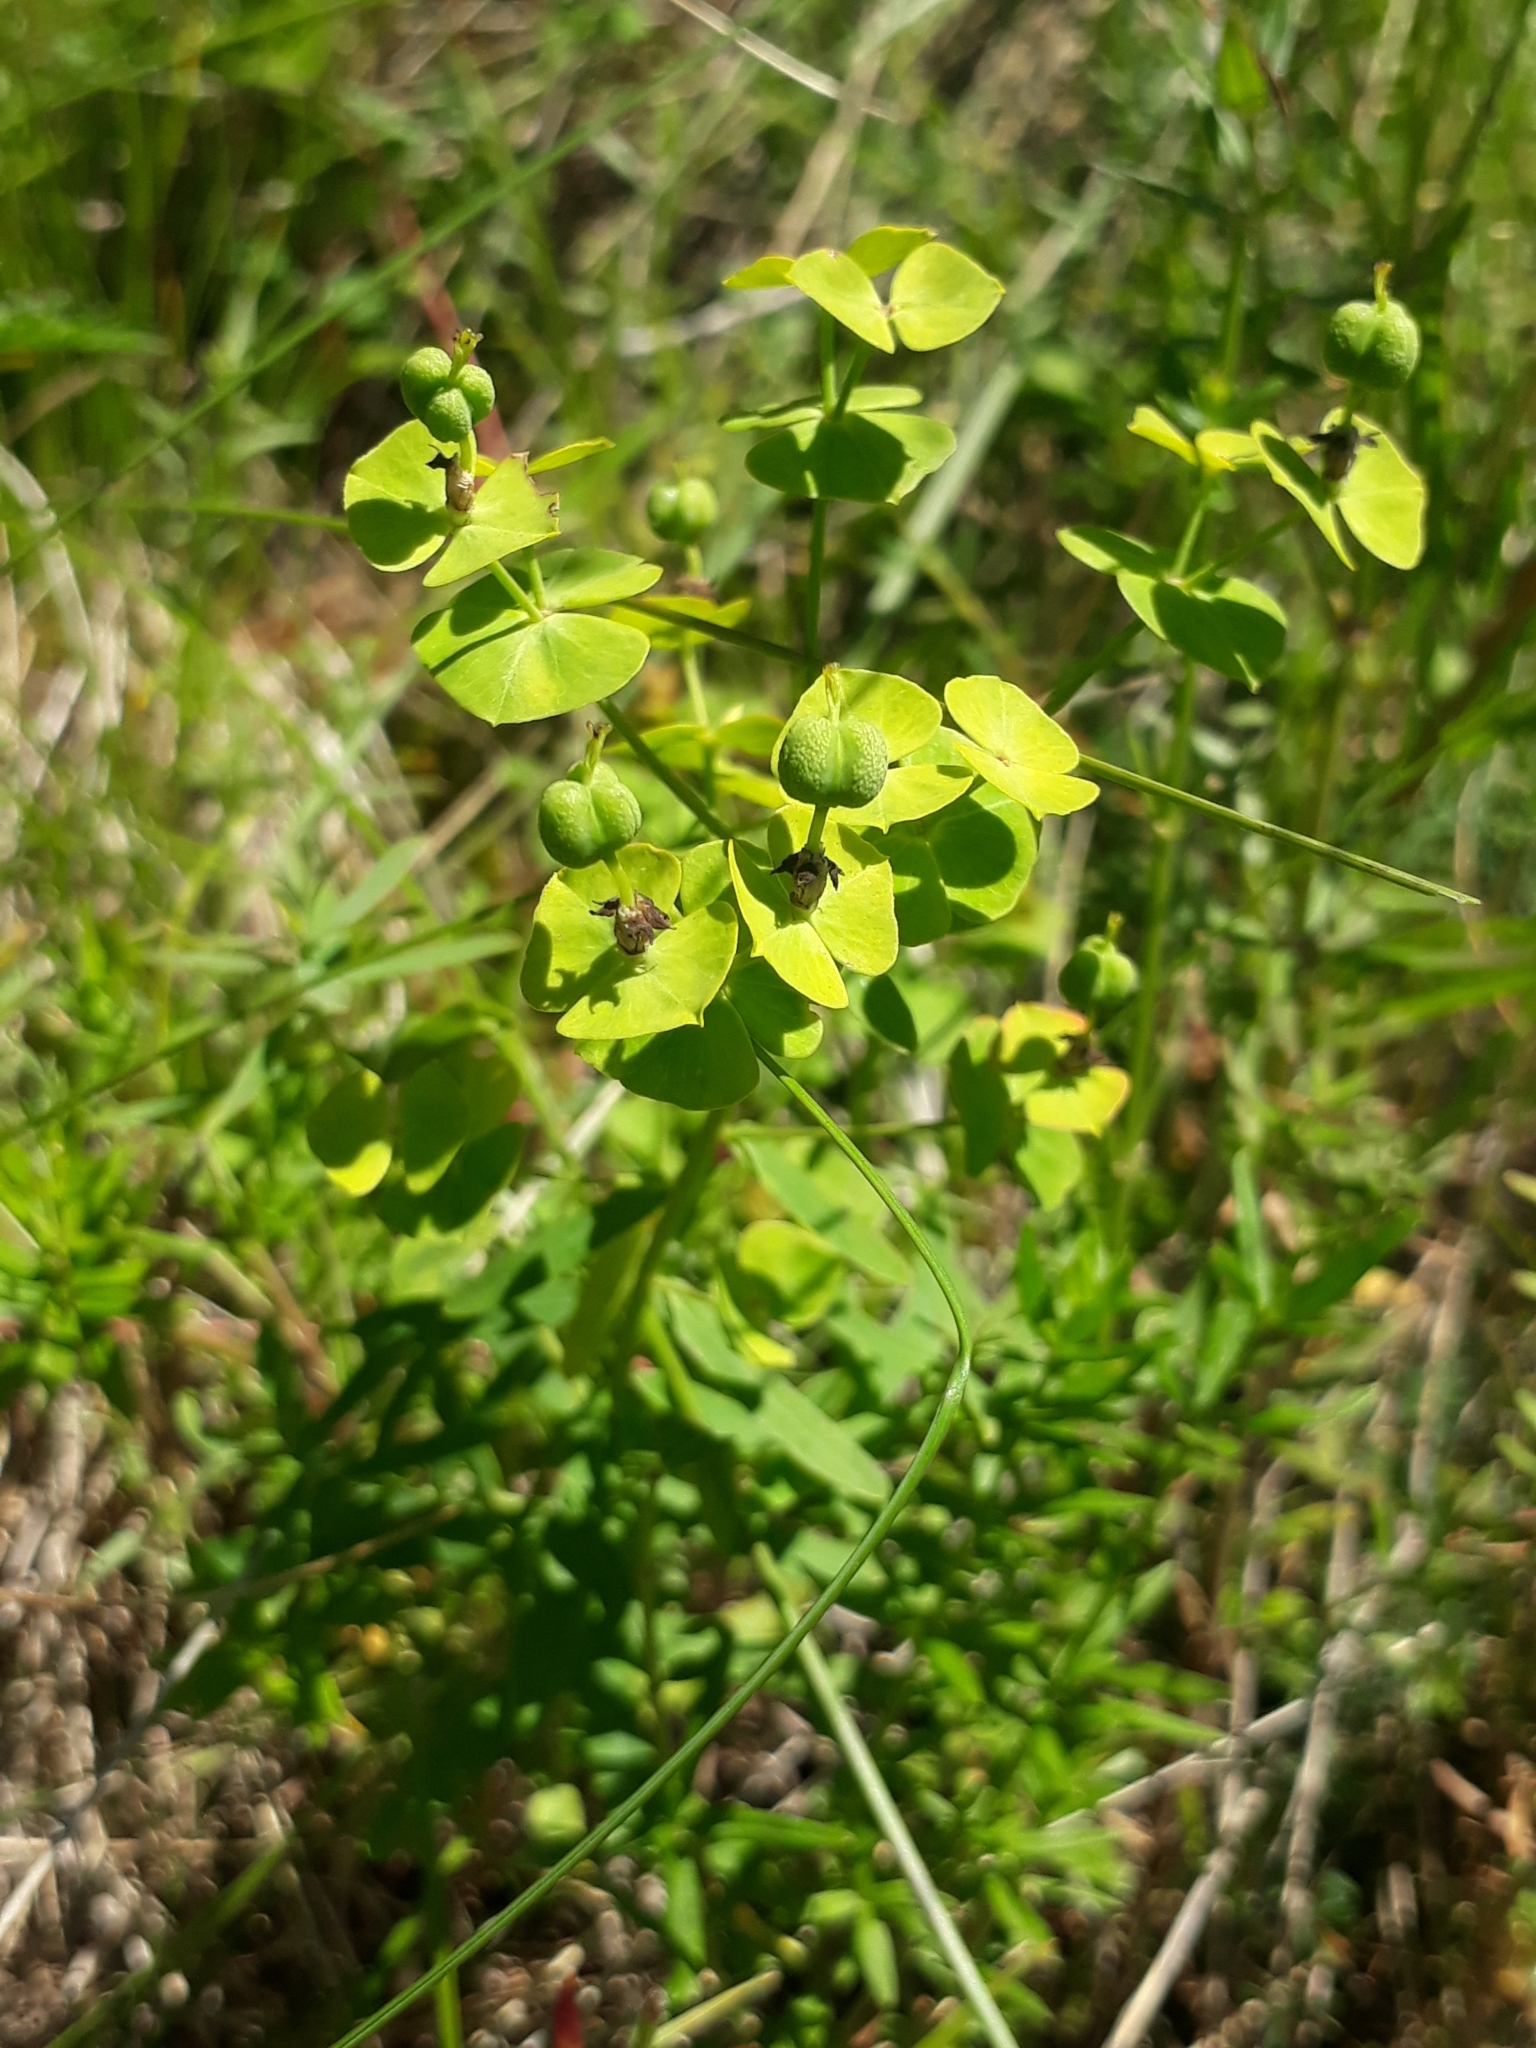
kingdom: Plantae
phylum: Tracheophyta
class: Magnoliopsida
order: Malpighiales
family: Euphorbiaceae
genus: Euphorbia
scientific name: Euphorbia esula
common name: Leafy spurge
